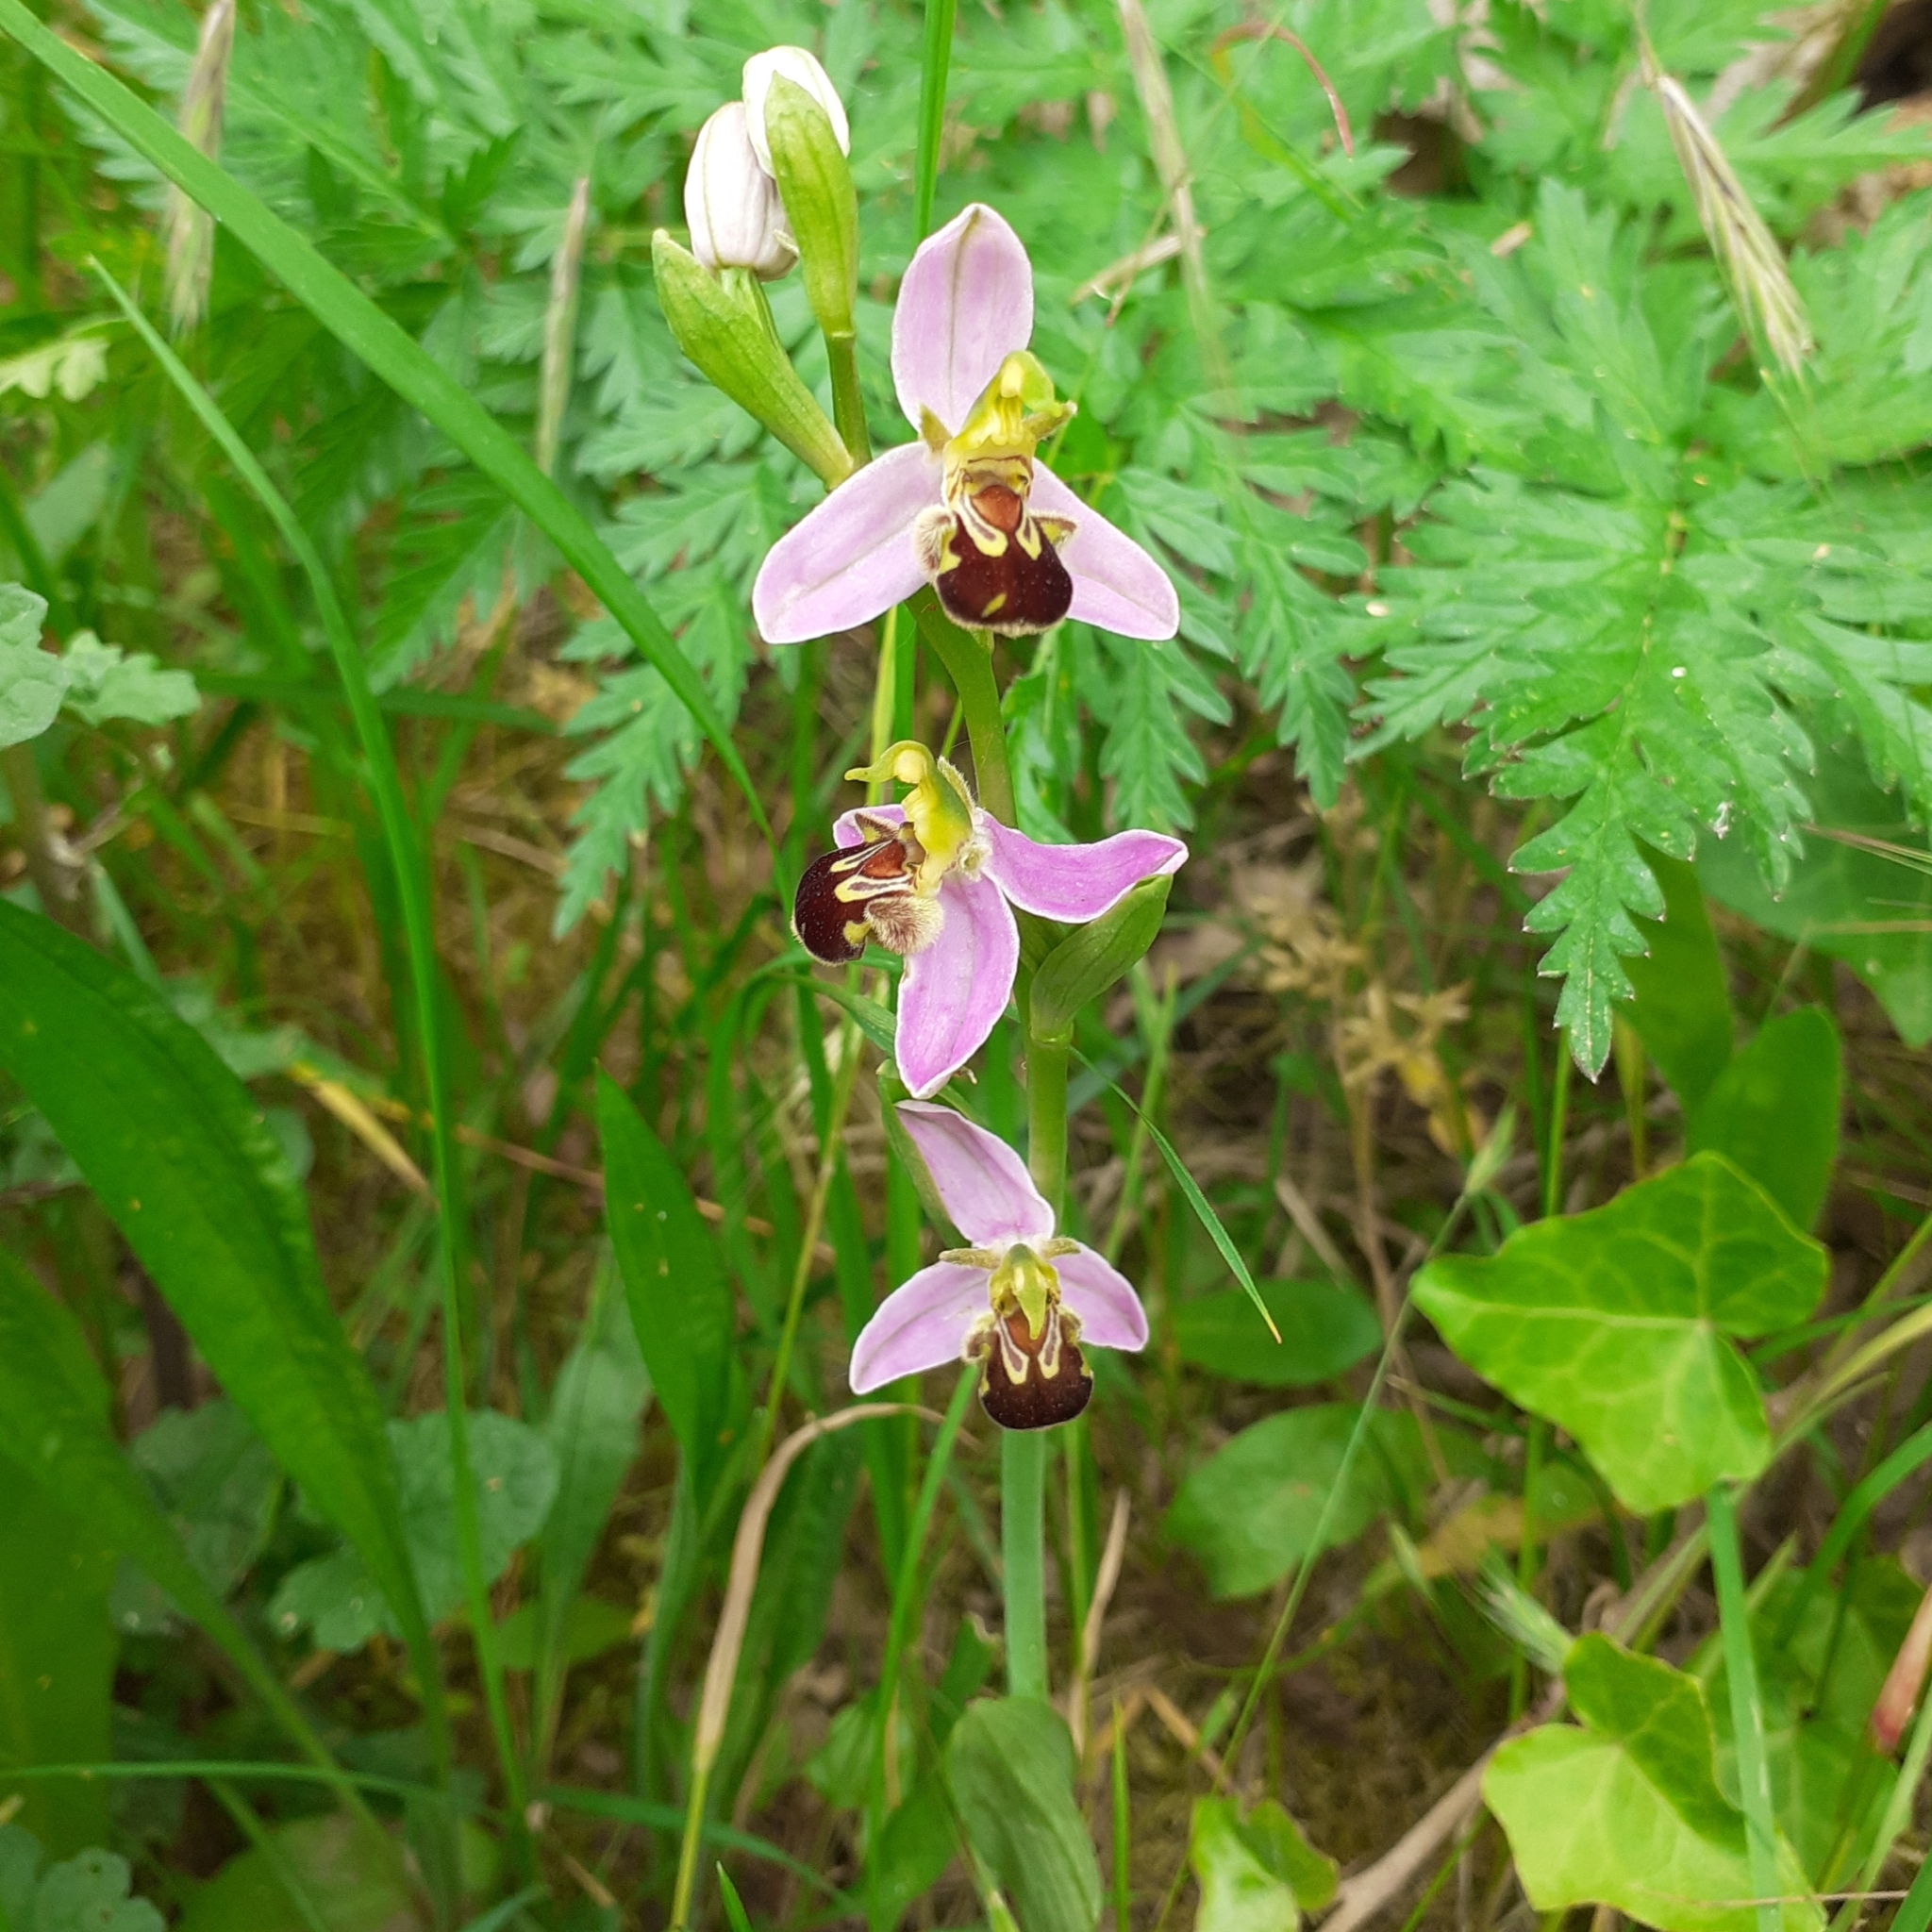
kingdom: Plantae
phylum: Tracheophyta
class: Liliopsida
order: Asparagales
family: Orchidaceae
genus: Ophrys
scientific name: Ophrys apifera
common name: Bee orchid
